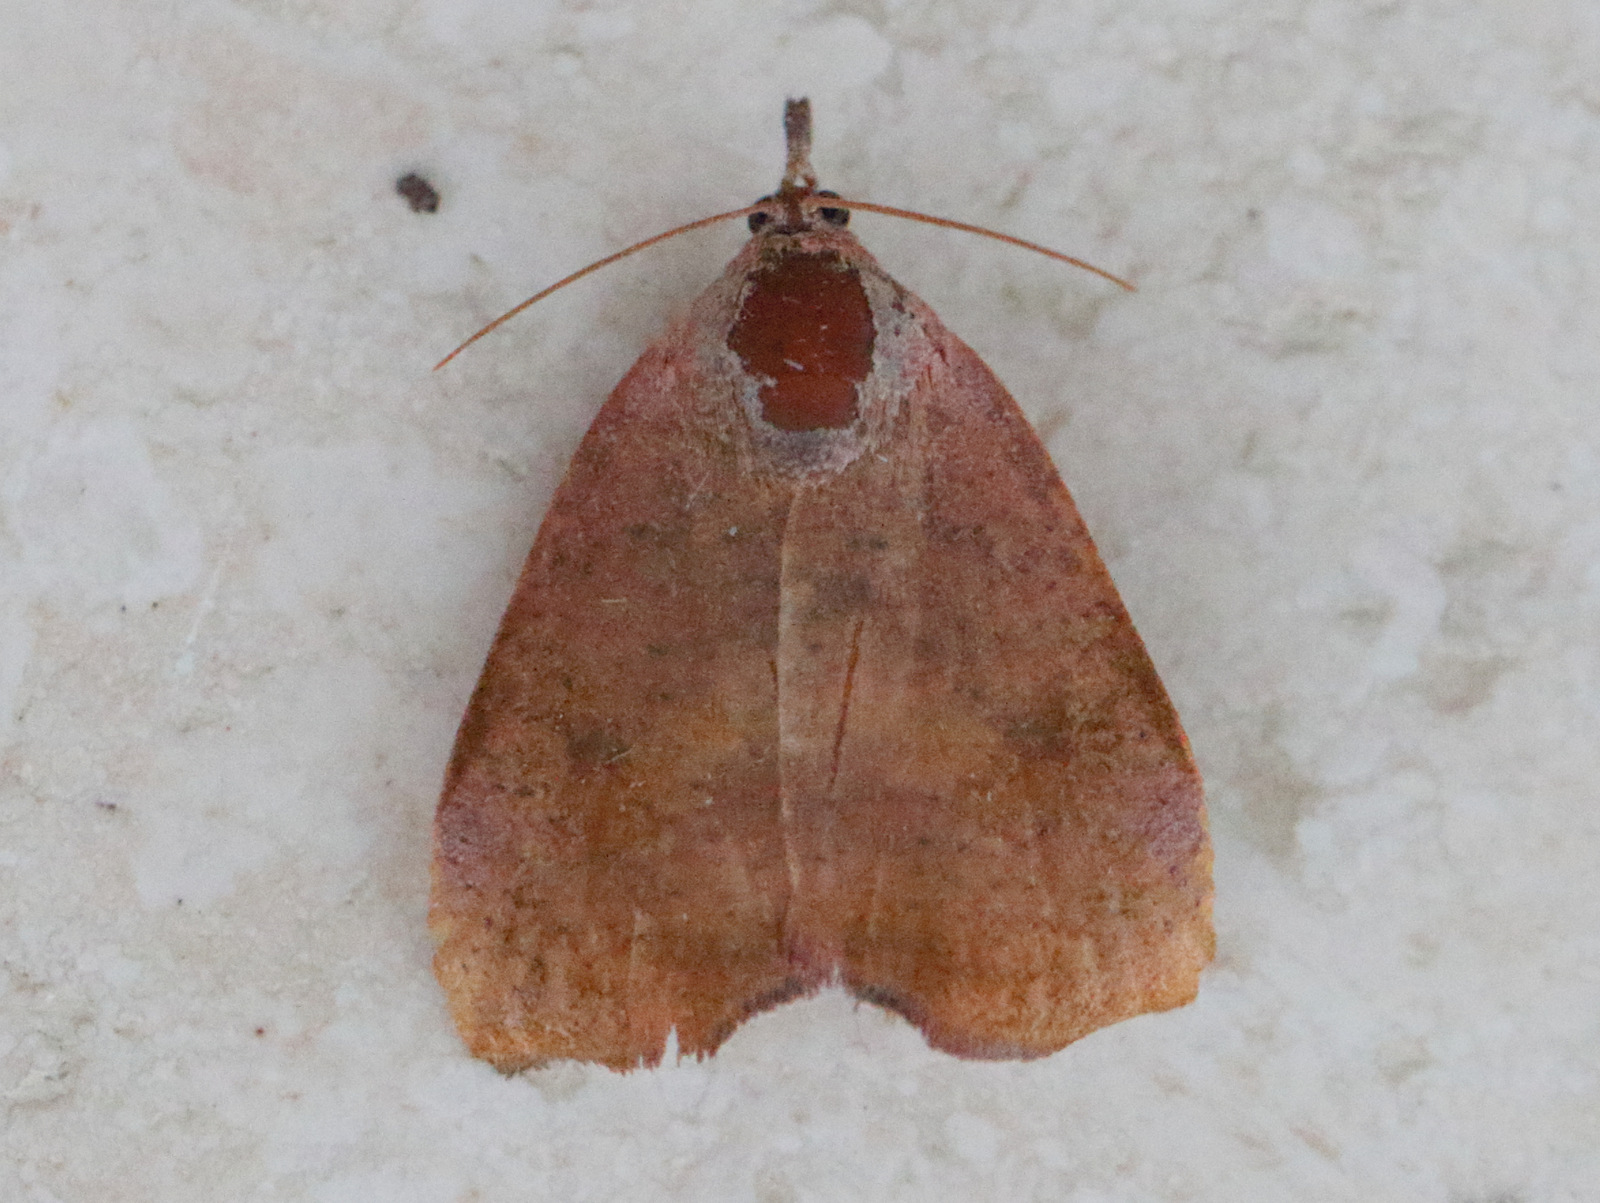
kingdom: Animalia
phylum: Arthropoda
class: Insecta
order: Lepidoptera
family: Hyblaeidae
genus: Hyblaea
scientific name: Hyblaea ibidias
